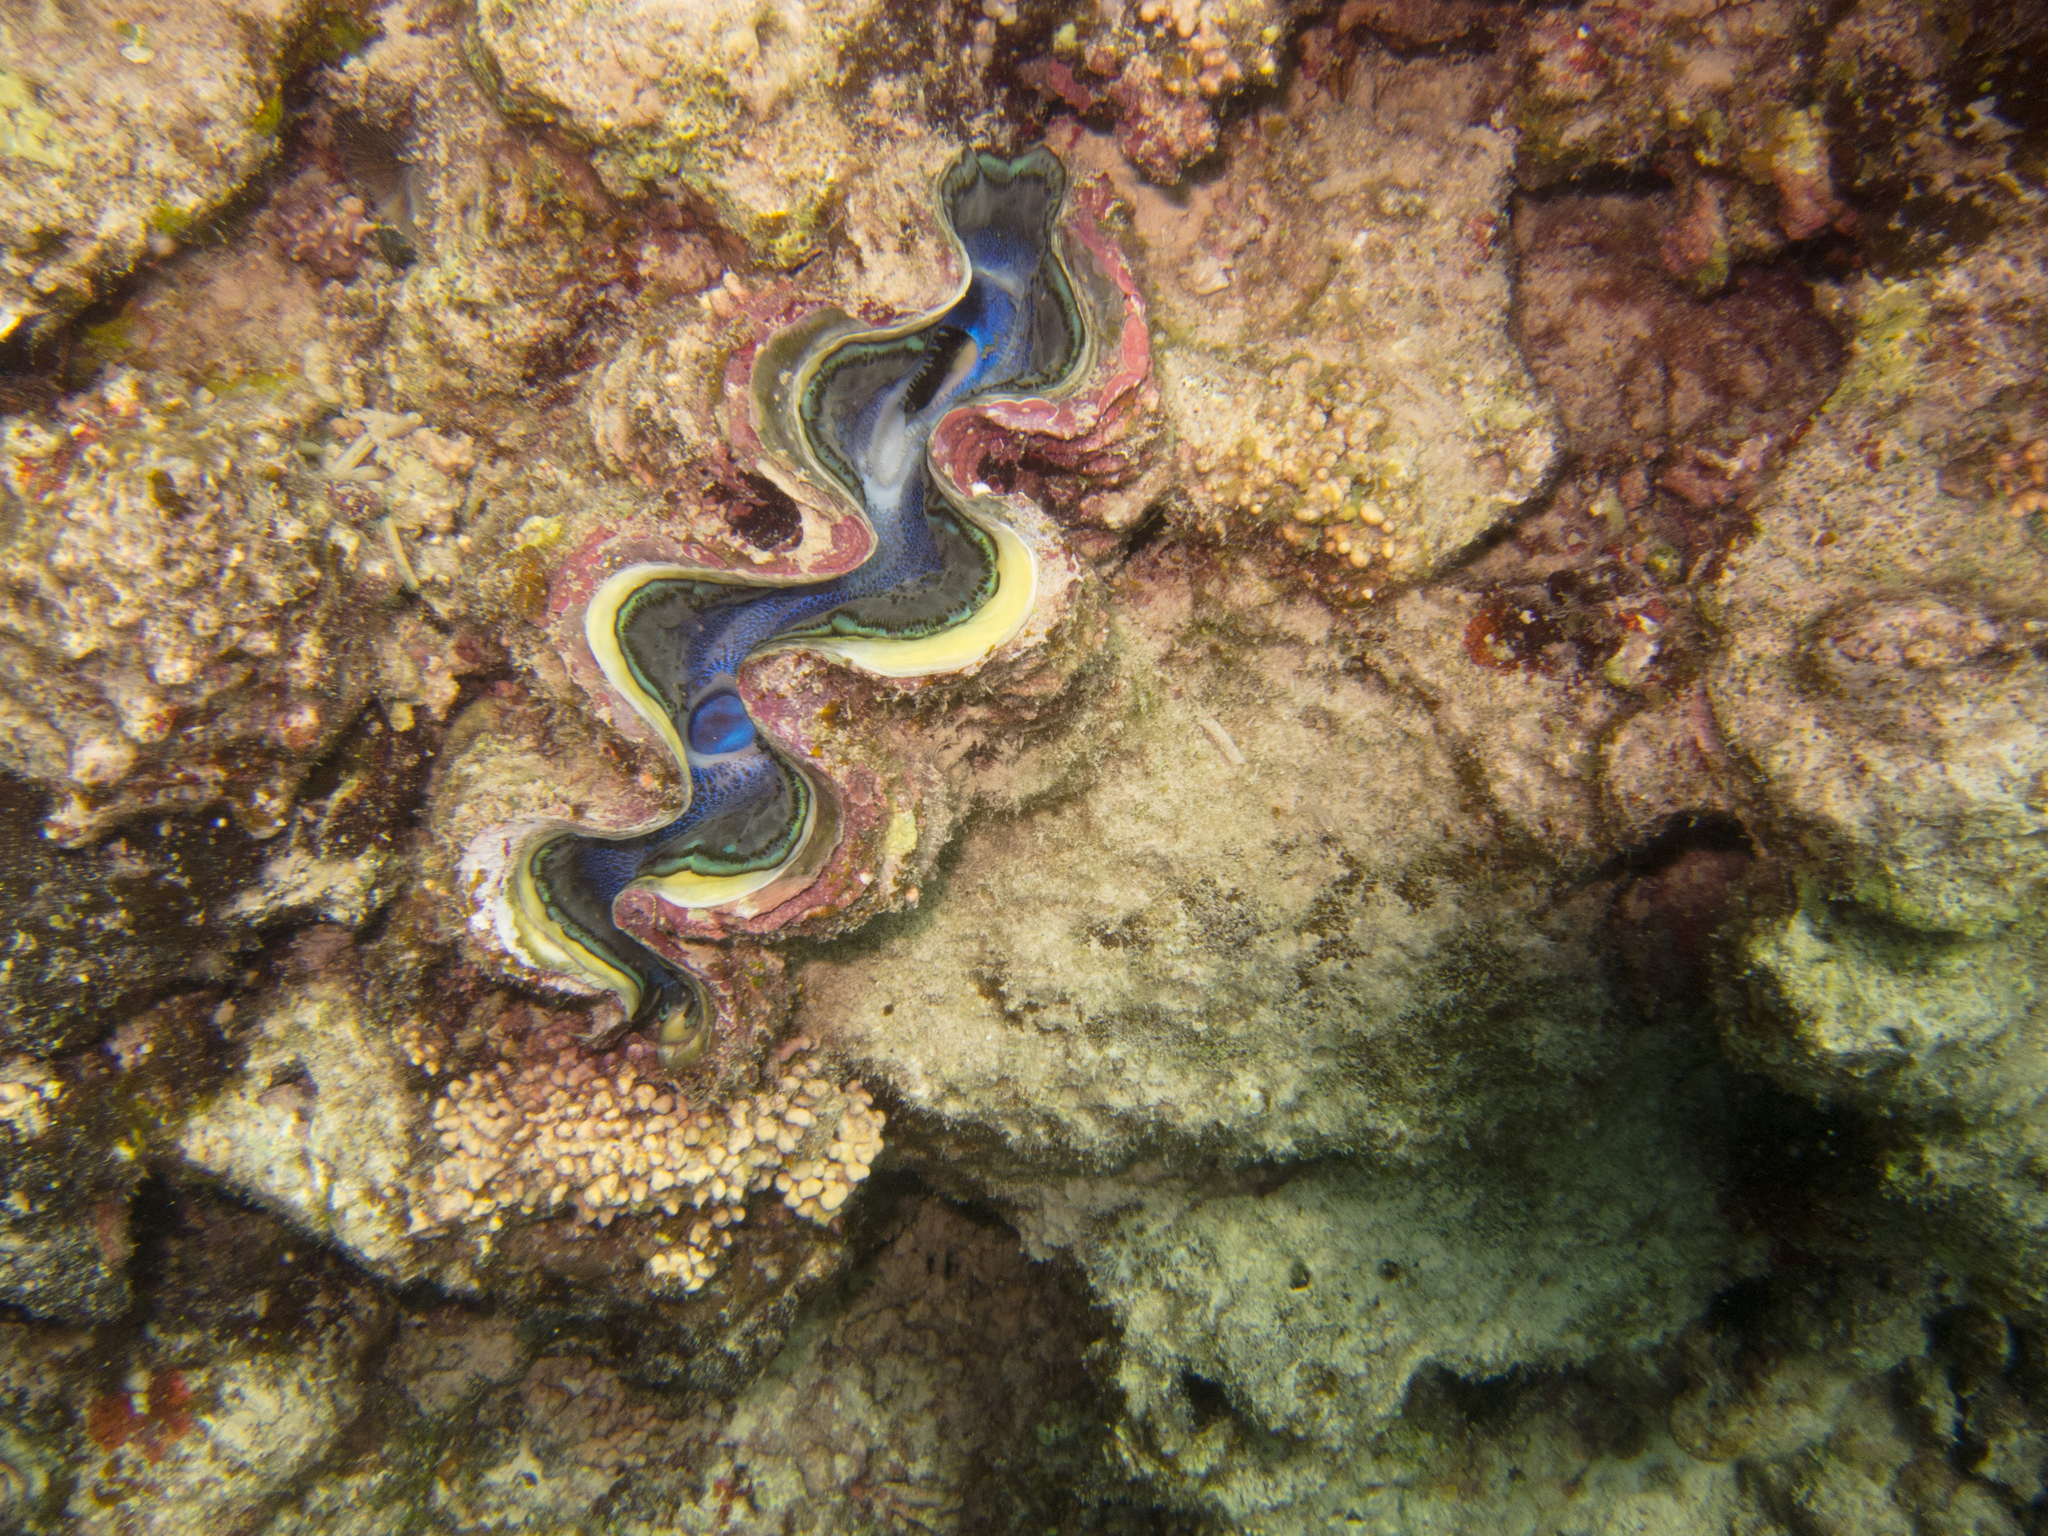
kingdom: Animalia
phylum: Mollusca
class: Bivalvia
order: Cardiida
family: Cardiidae
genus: Tridacna
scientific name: Tridacna maxima
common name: Small giant clam
